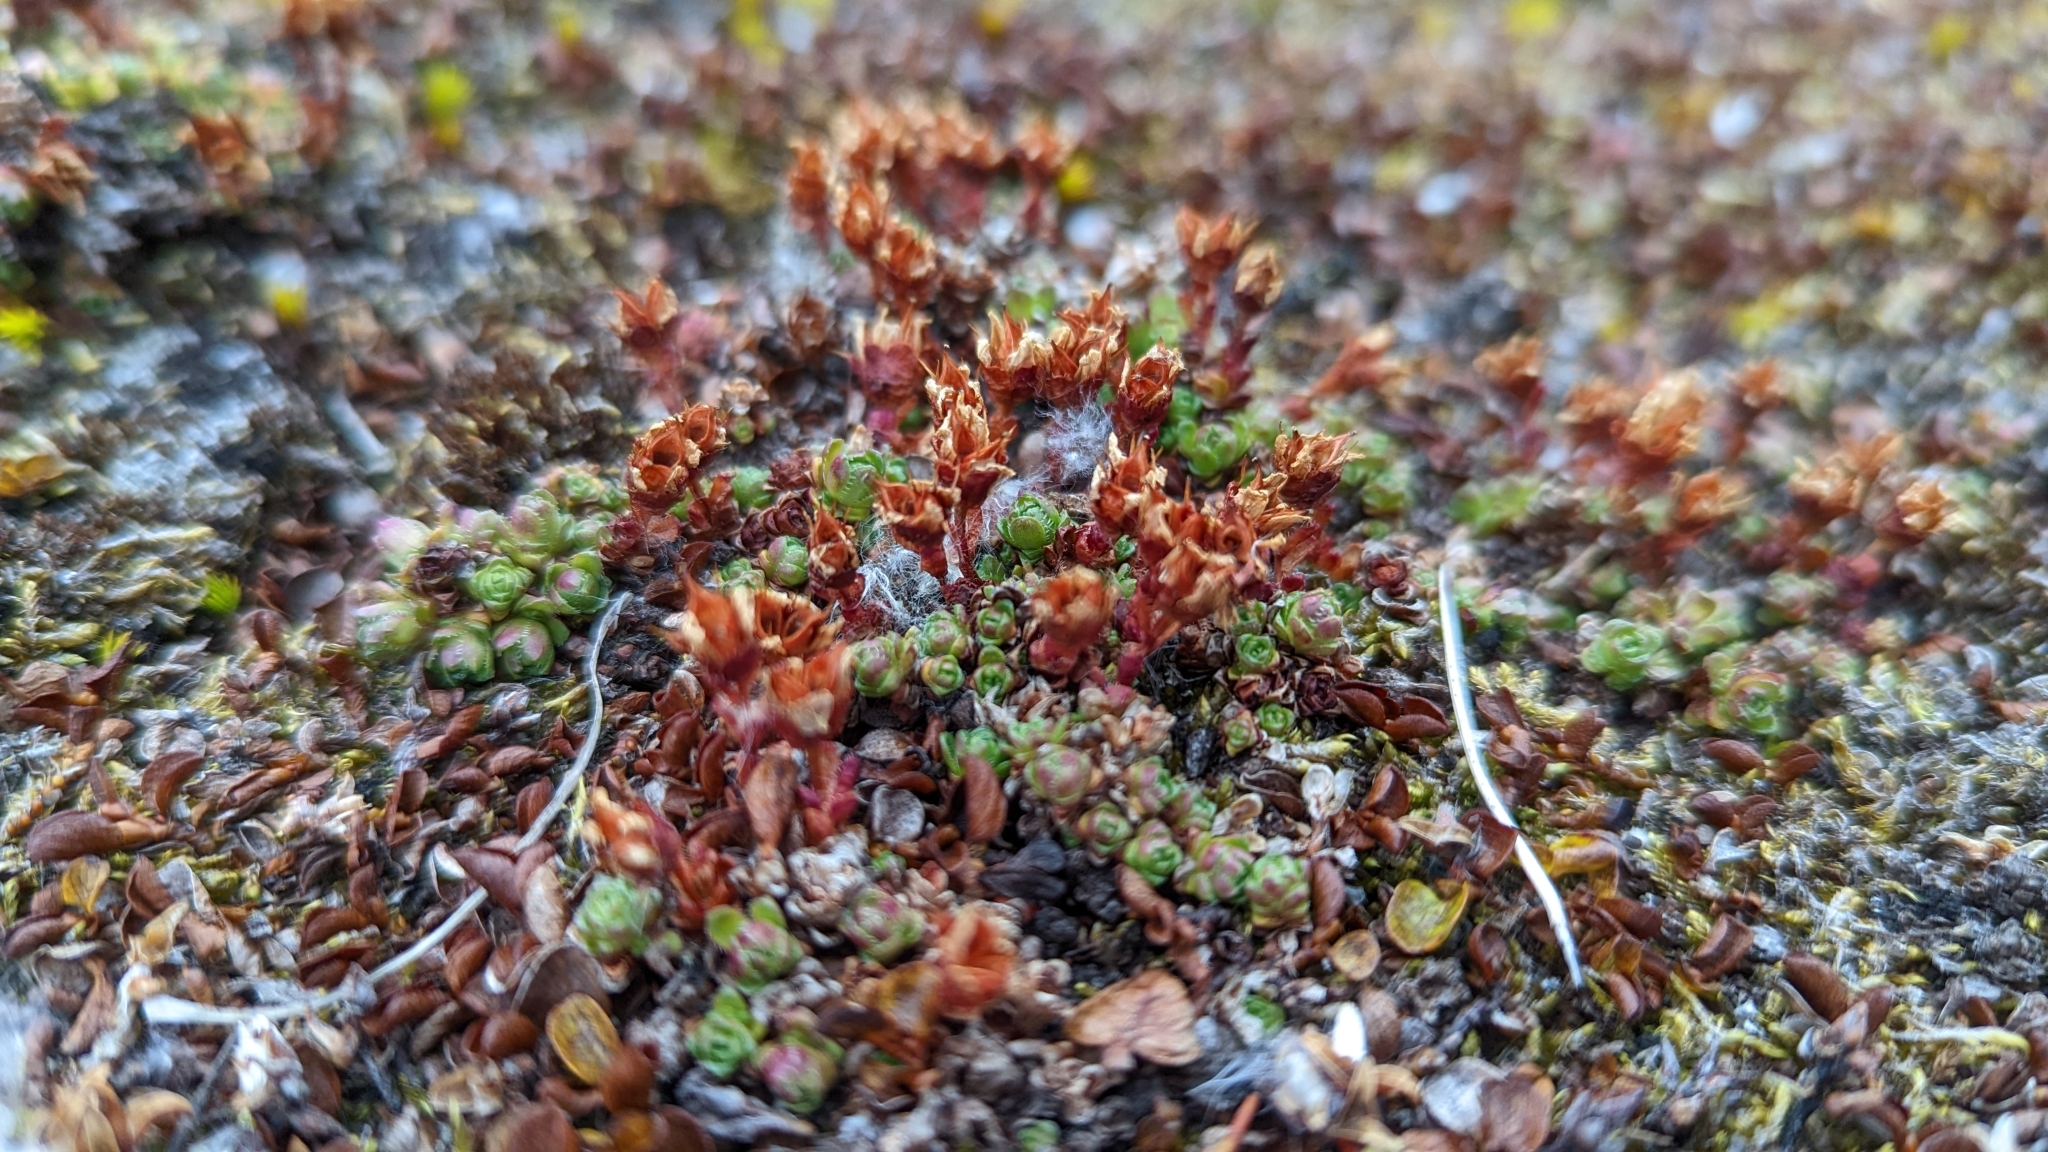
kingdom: Plantae
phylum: Tracheophyta
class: Magnoliopsida
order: Saxifragales
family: Saxifragaceae
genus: Saxifraga
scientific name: Saxifraga oppositifolia
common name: Purple saxifrage
